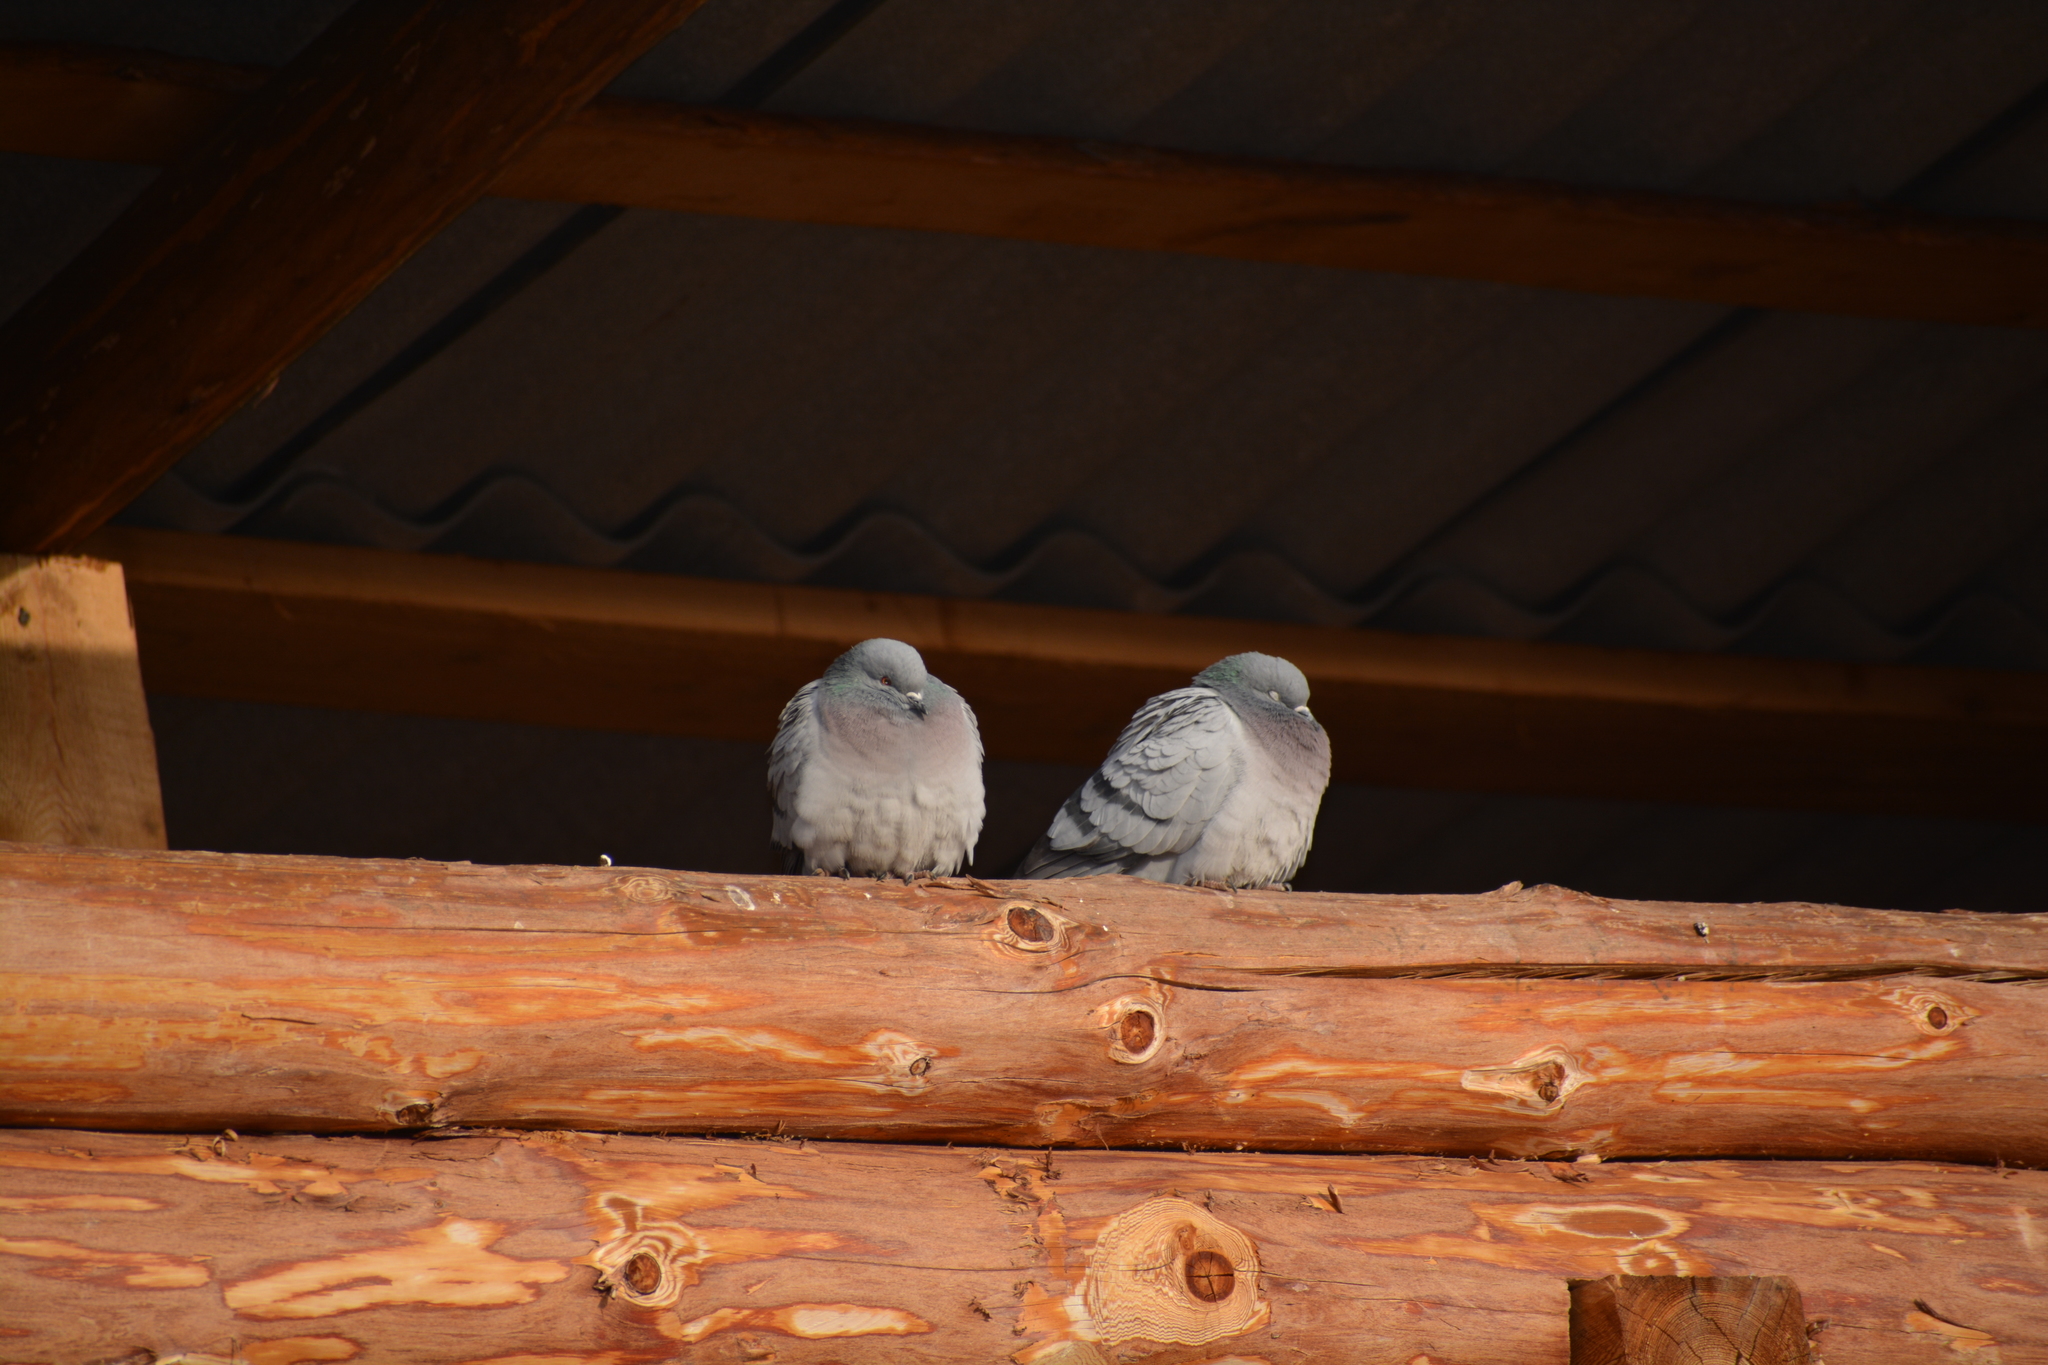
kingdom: Animalia
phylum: Chordata
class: Aves
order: Columbiformes
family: Columbidae
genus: Columba
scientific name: Columba livia
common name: Rock pigeon
